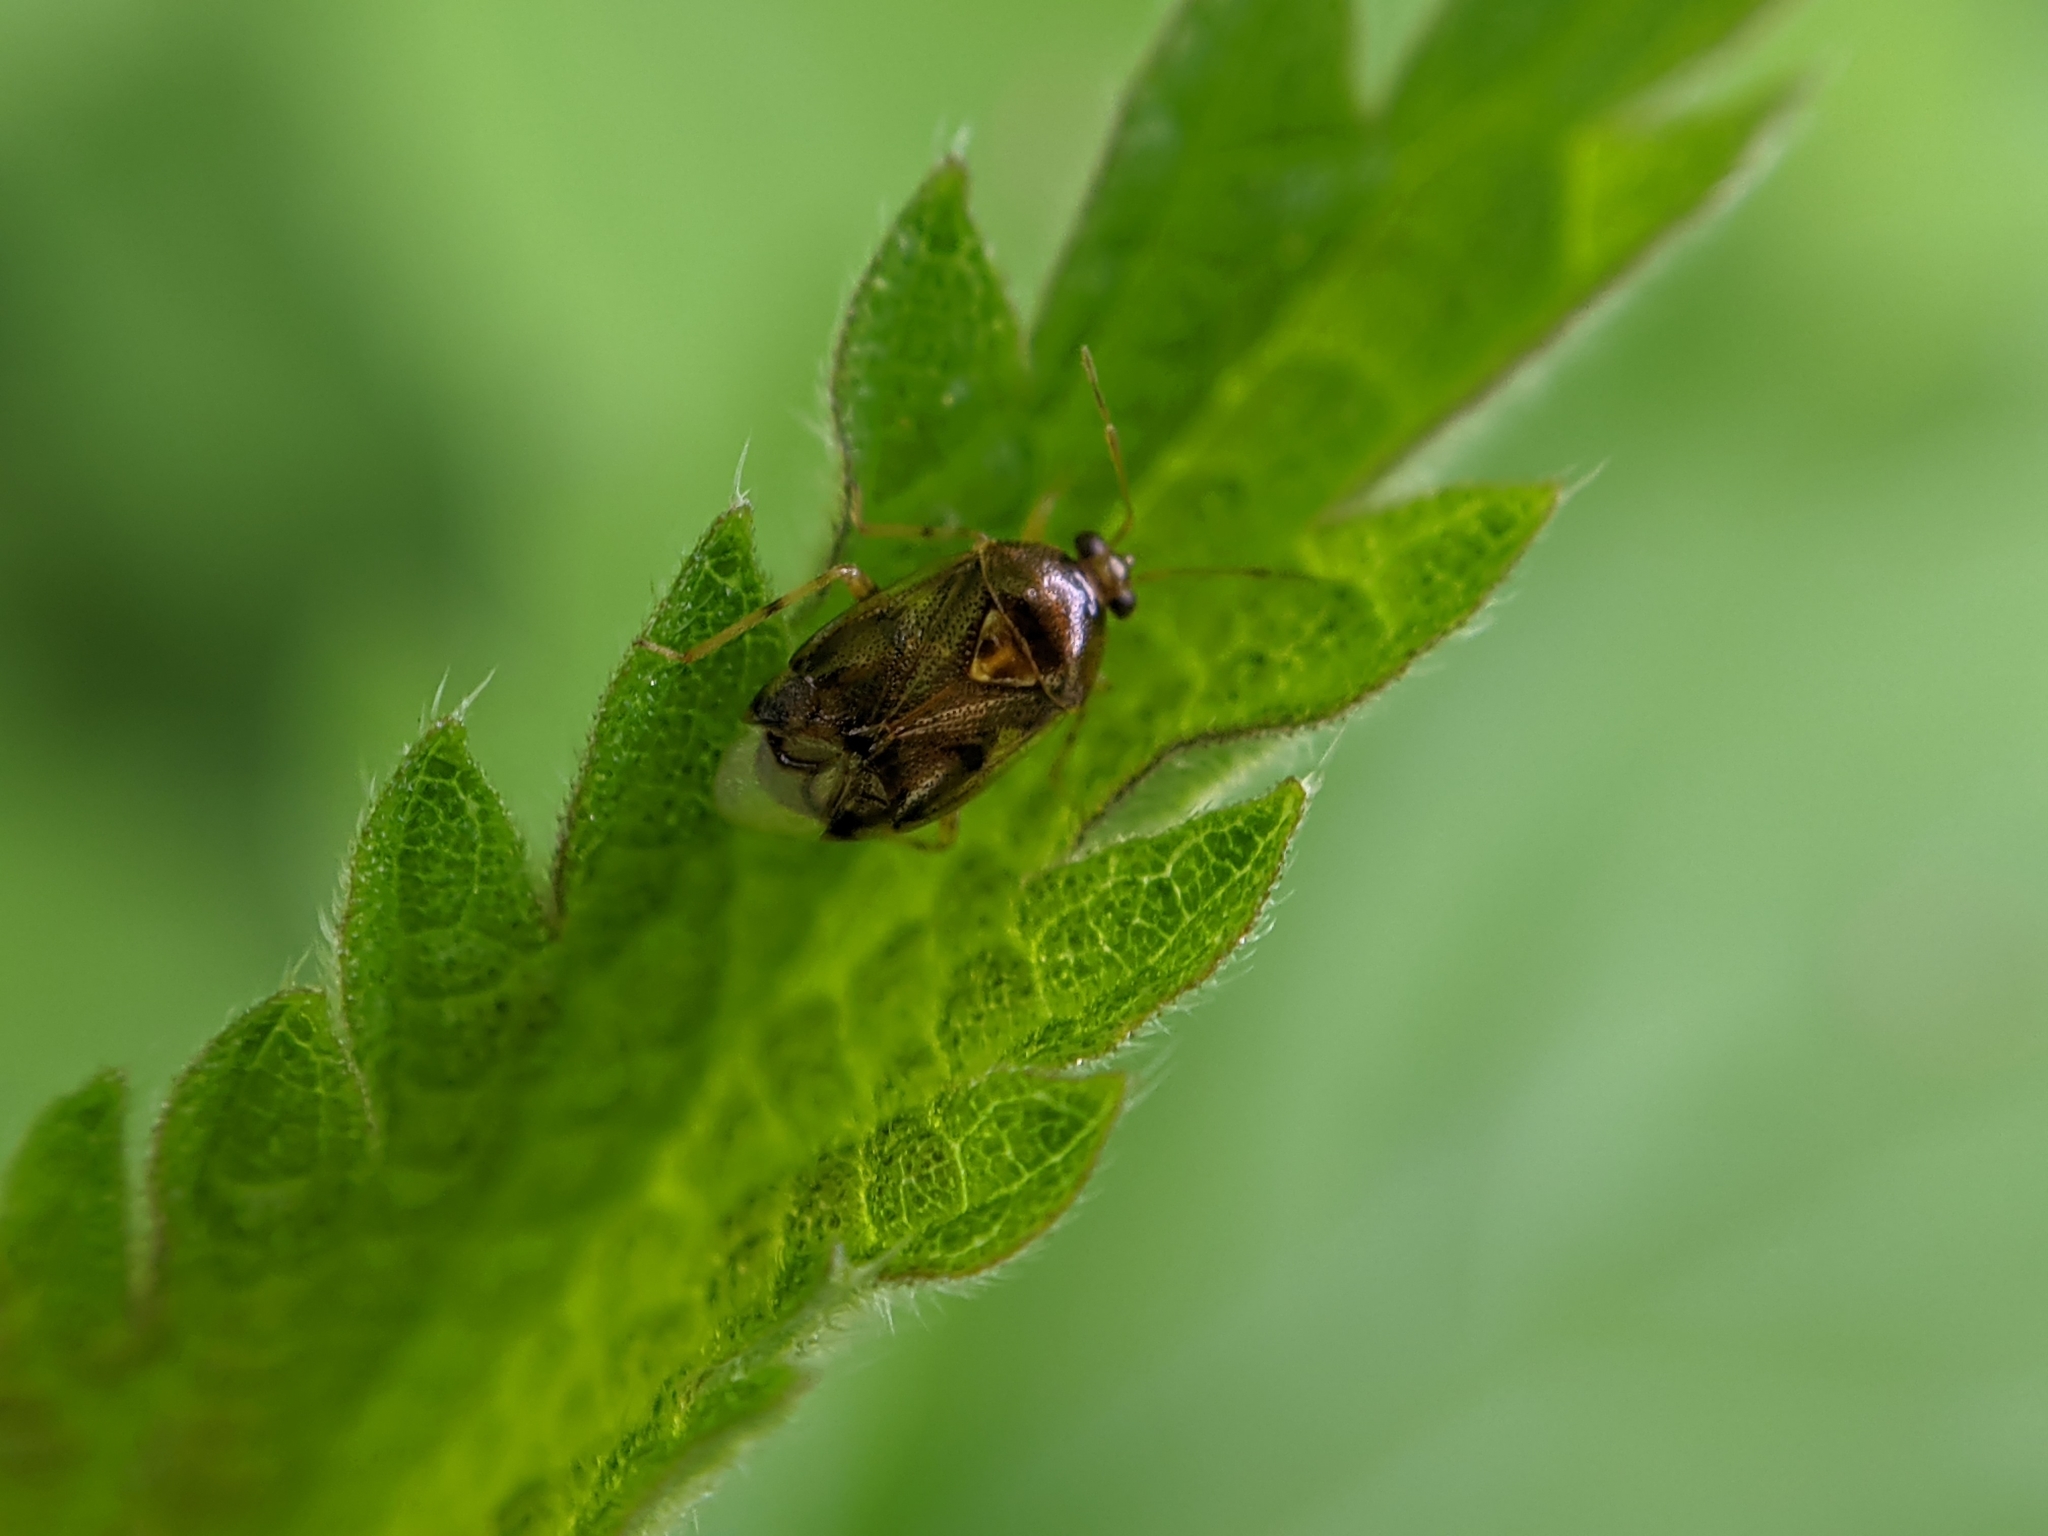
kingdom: Animalia
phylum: Arthropoda
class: Insecta
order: Hemiptera
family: Miridae
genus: Deraeocoris
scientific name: Deraeocoris lutescens
